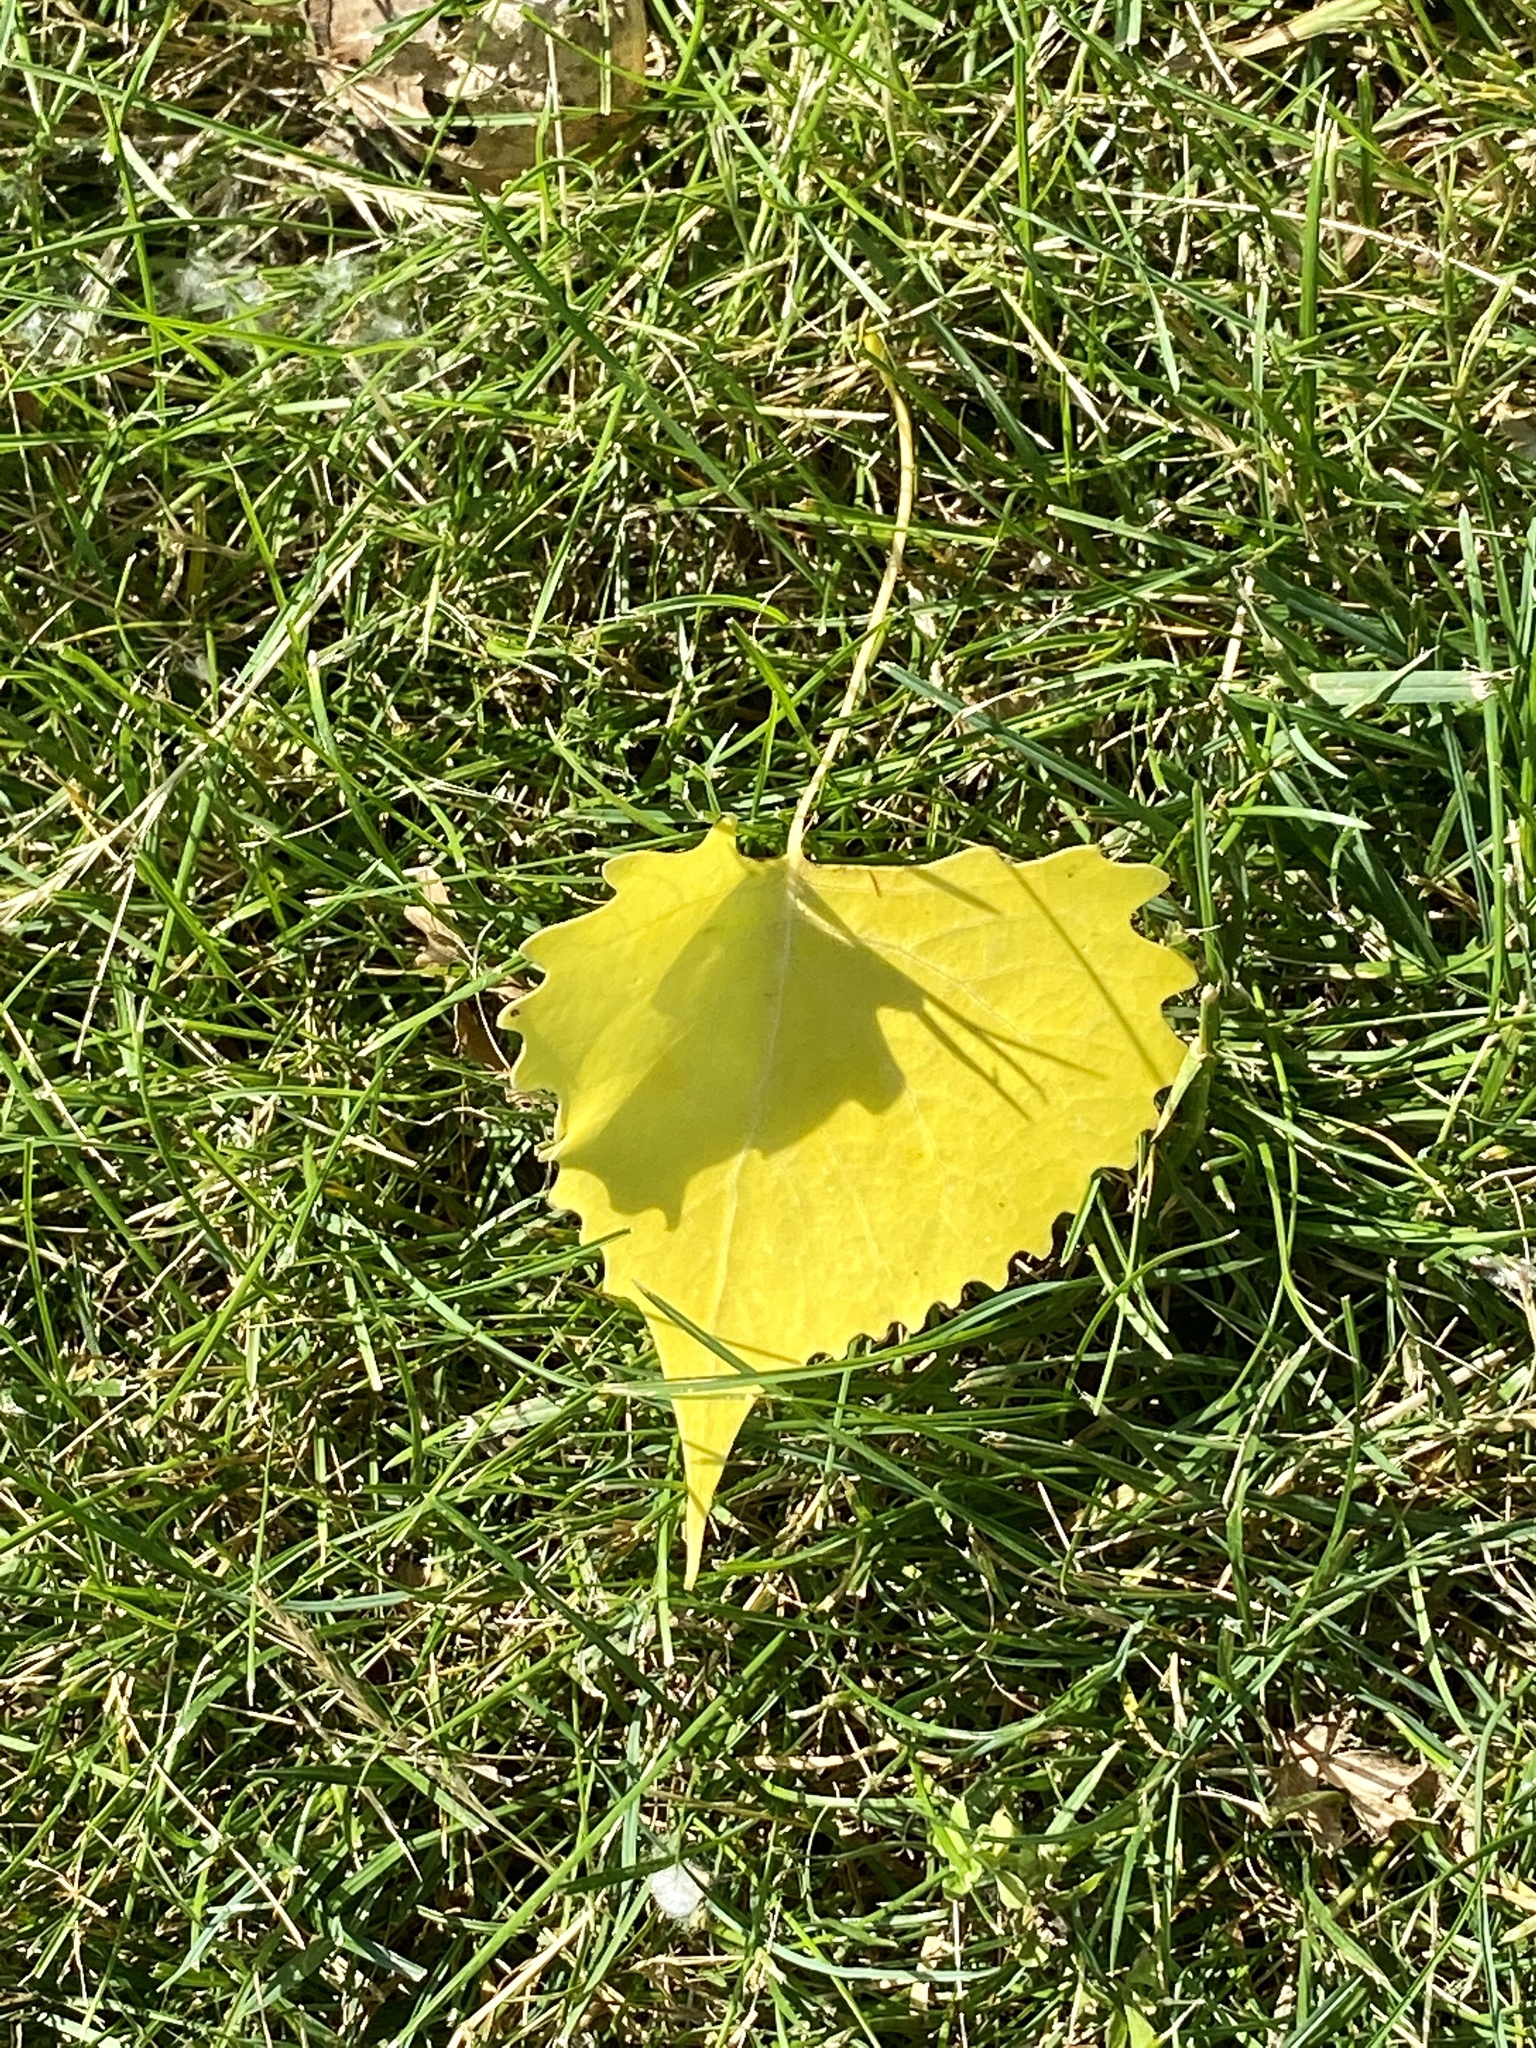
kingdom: Plantae
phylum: Tracheophyta
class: Magnoliopsida
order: Malpighiales
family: Salicaceae
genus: Populus
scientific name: Populus deltoides
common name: Eastern cottonwood
